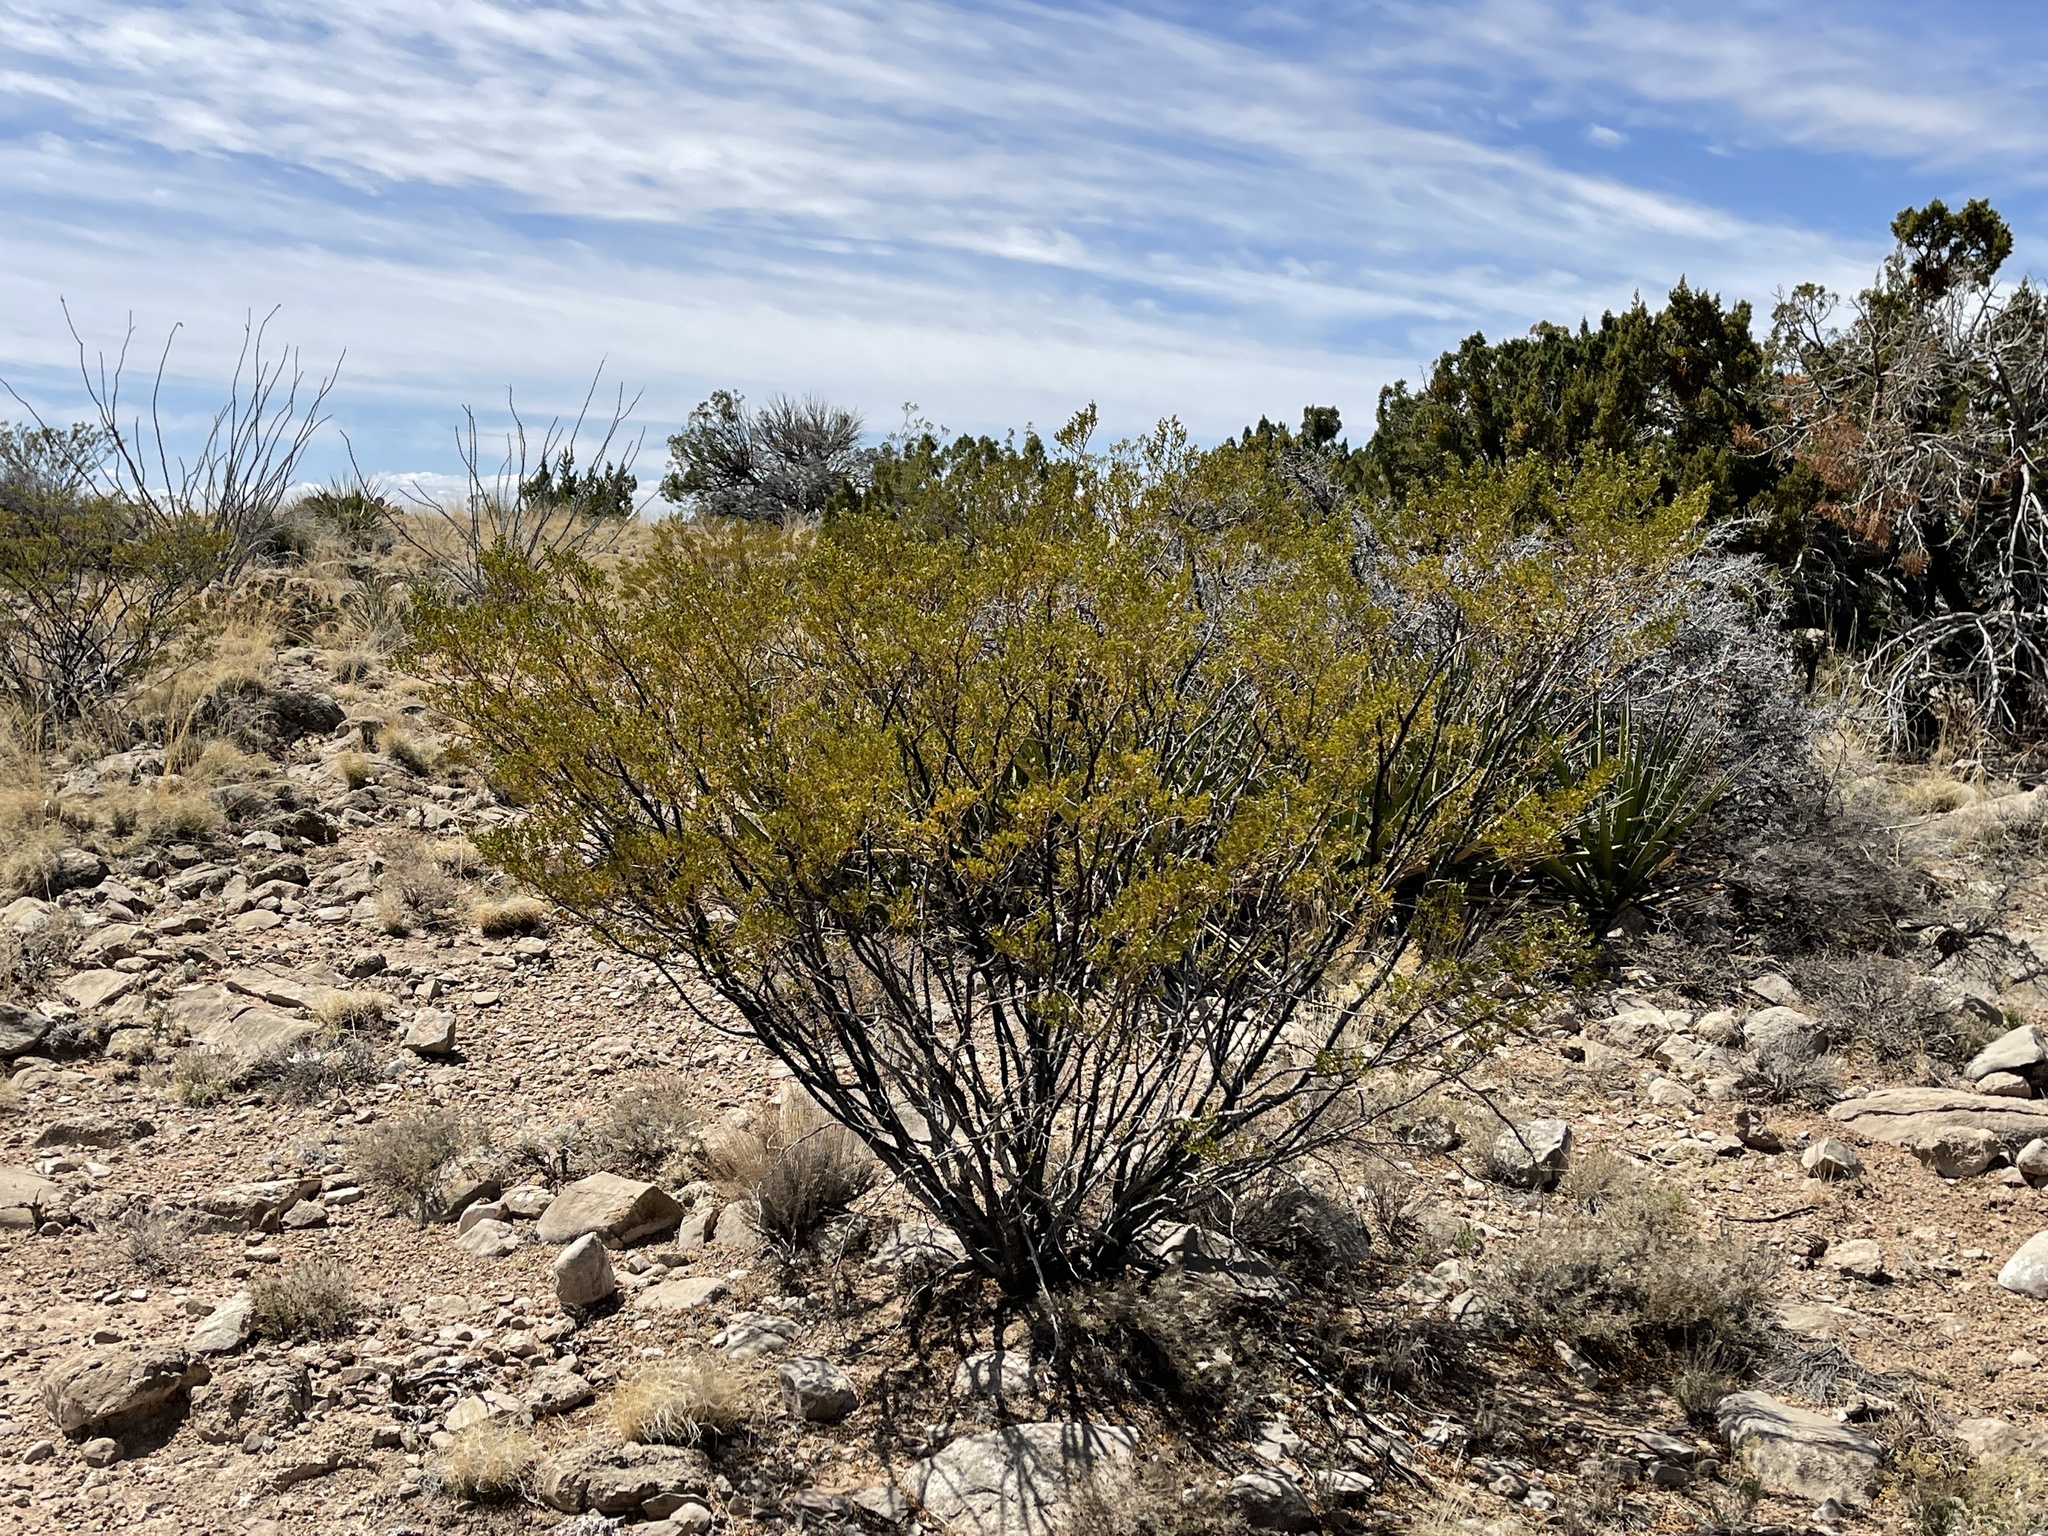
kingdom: Plantae
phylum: Tracheophyta
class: Magnoliopsida
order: Zygophyllales
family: Zygophyllaceae
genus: Larrea
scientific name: Larrea tridentata
